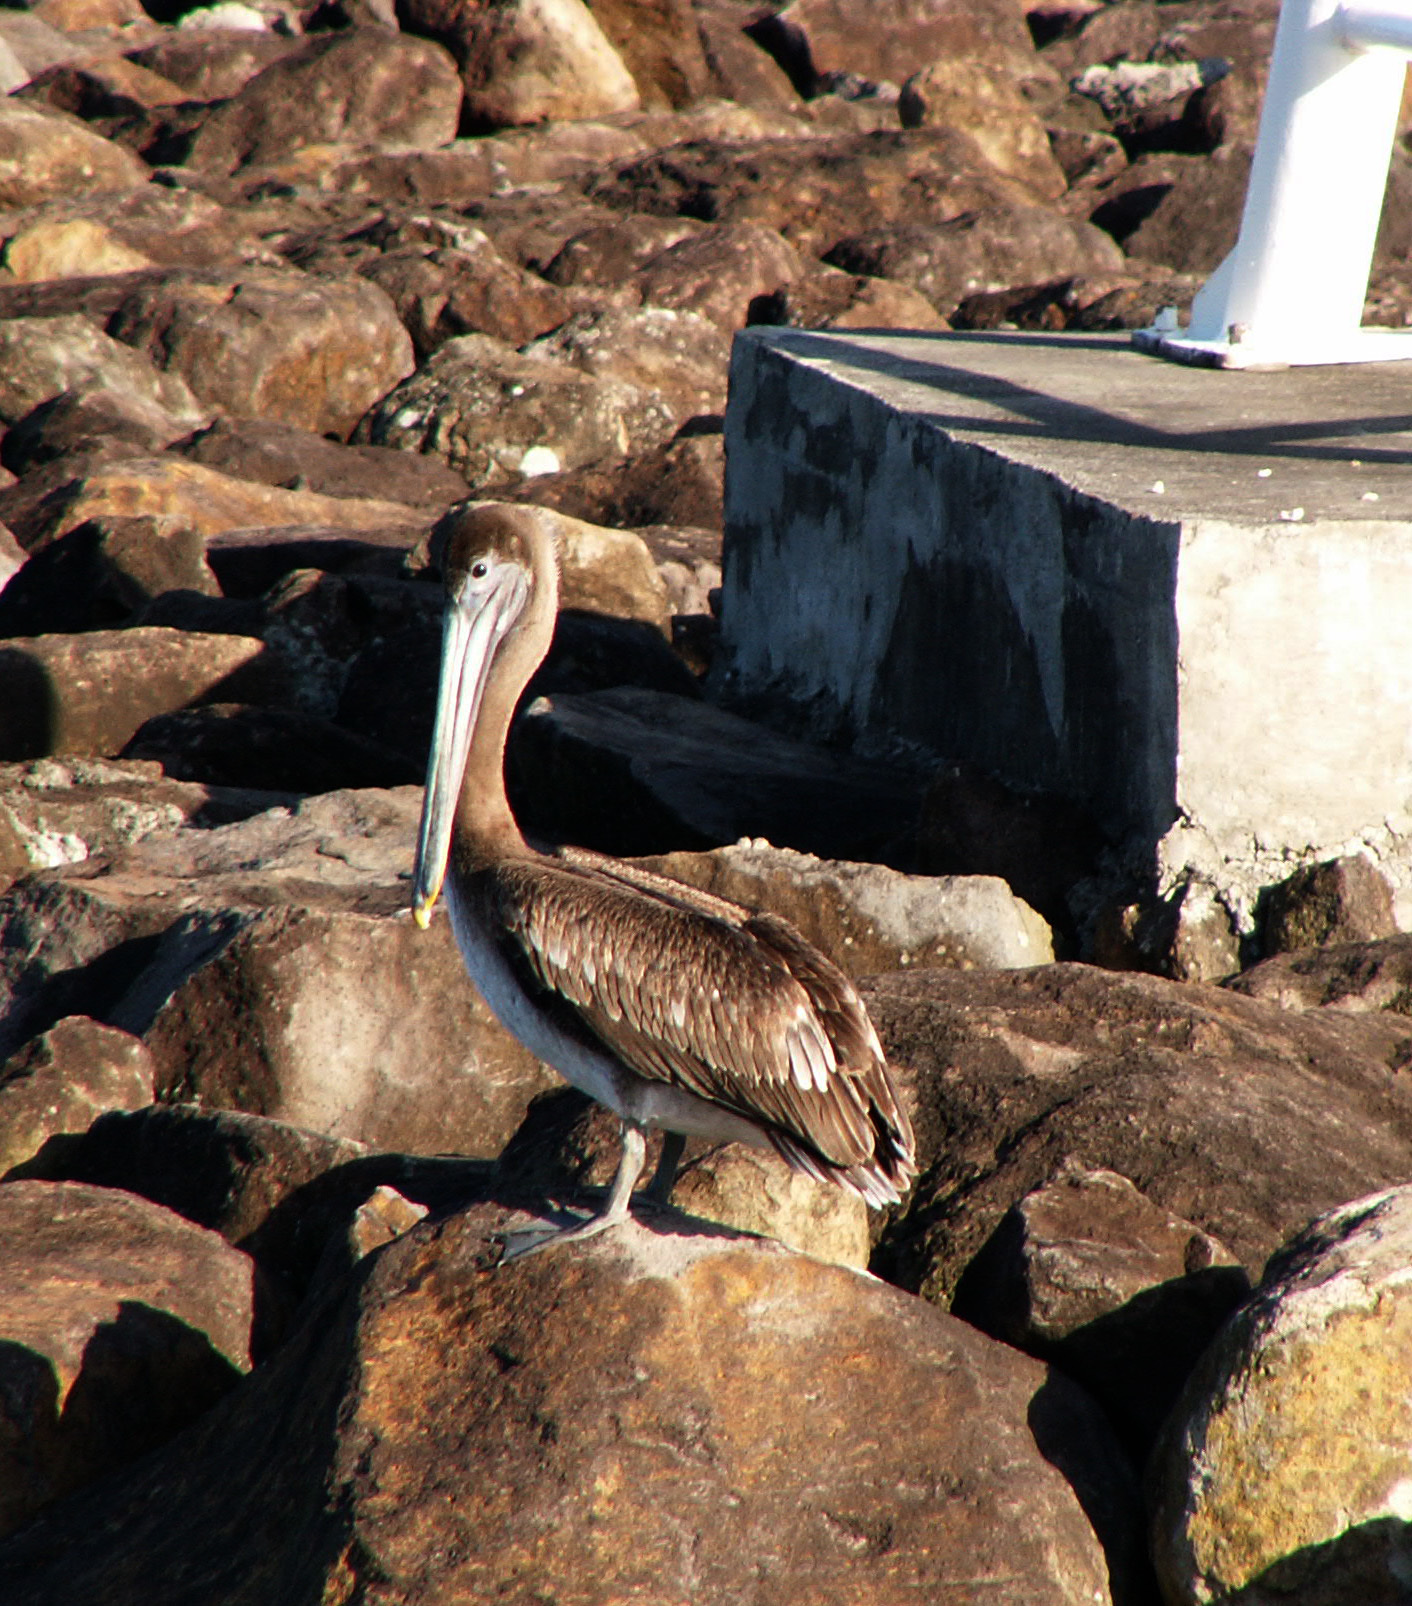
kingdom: Animalia
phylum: Chordata
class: Aves
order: Pelecaniformes
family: Pelecanidae
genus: Pelecanus
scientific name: Pelecanus occidentalis
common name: Brown pelican
